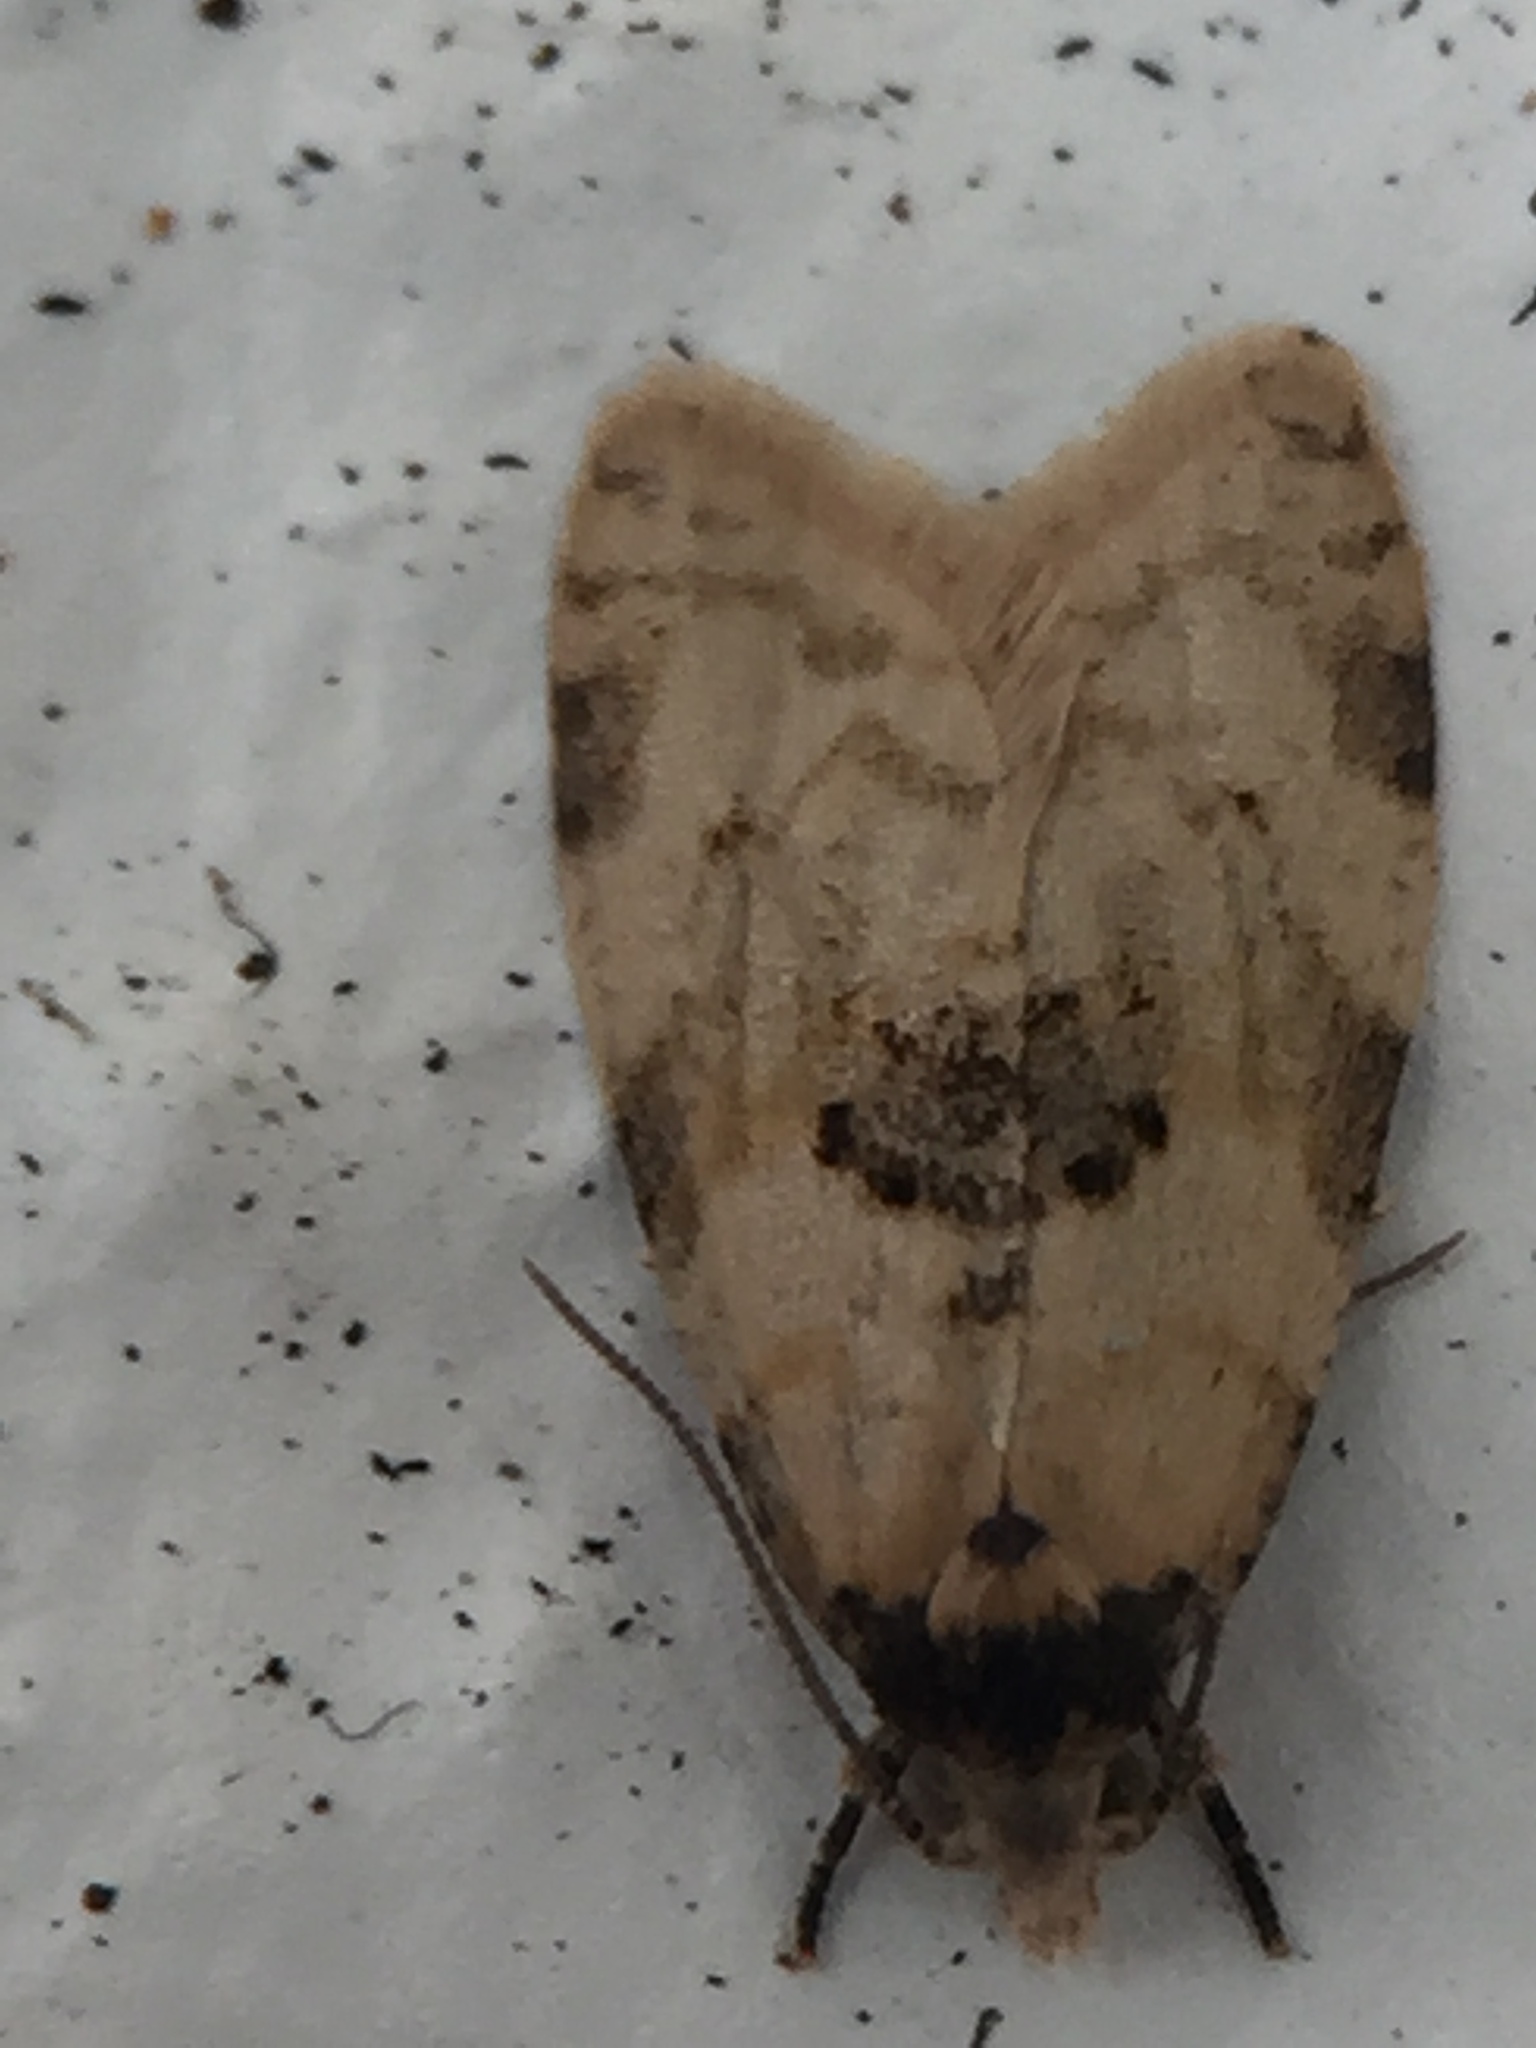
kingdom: Animalia
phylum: Arthropoda
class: Insecta
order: Lepidoptera
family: Tortricidae
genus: Dipterina
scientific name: Dipterina imbriferana
